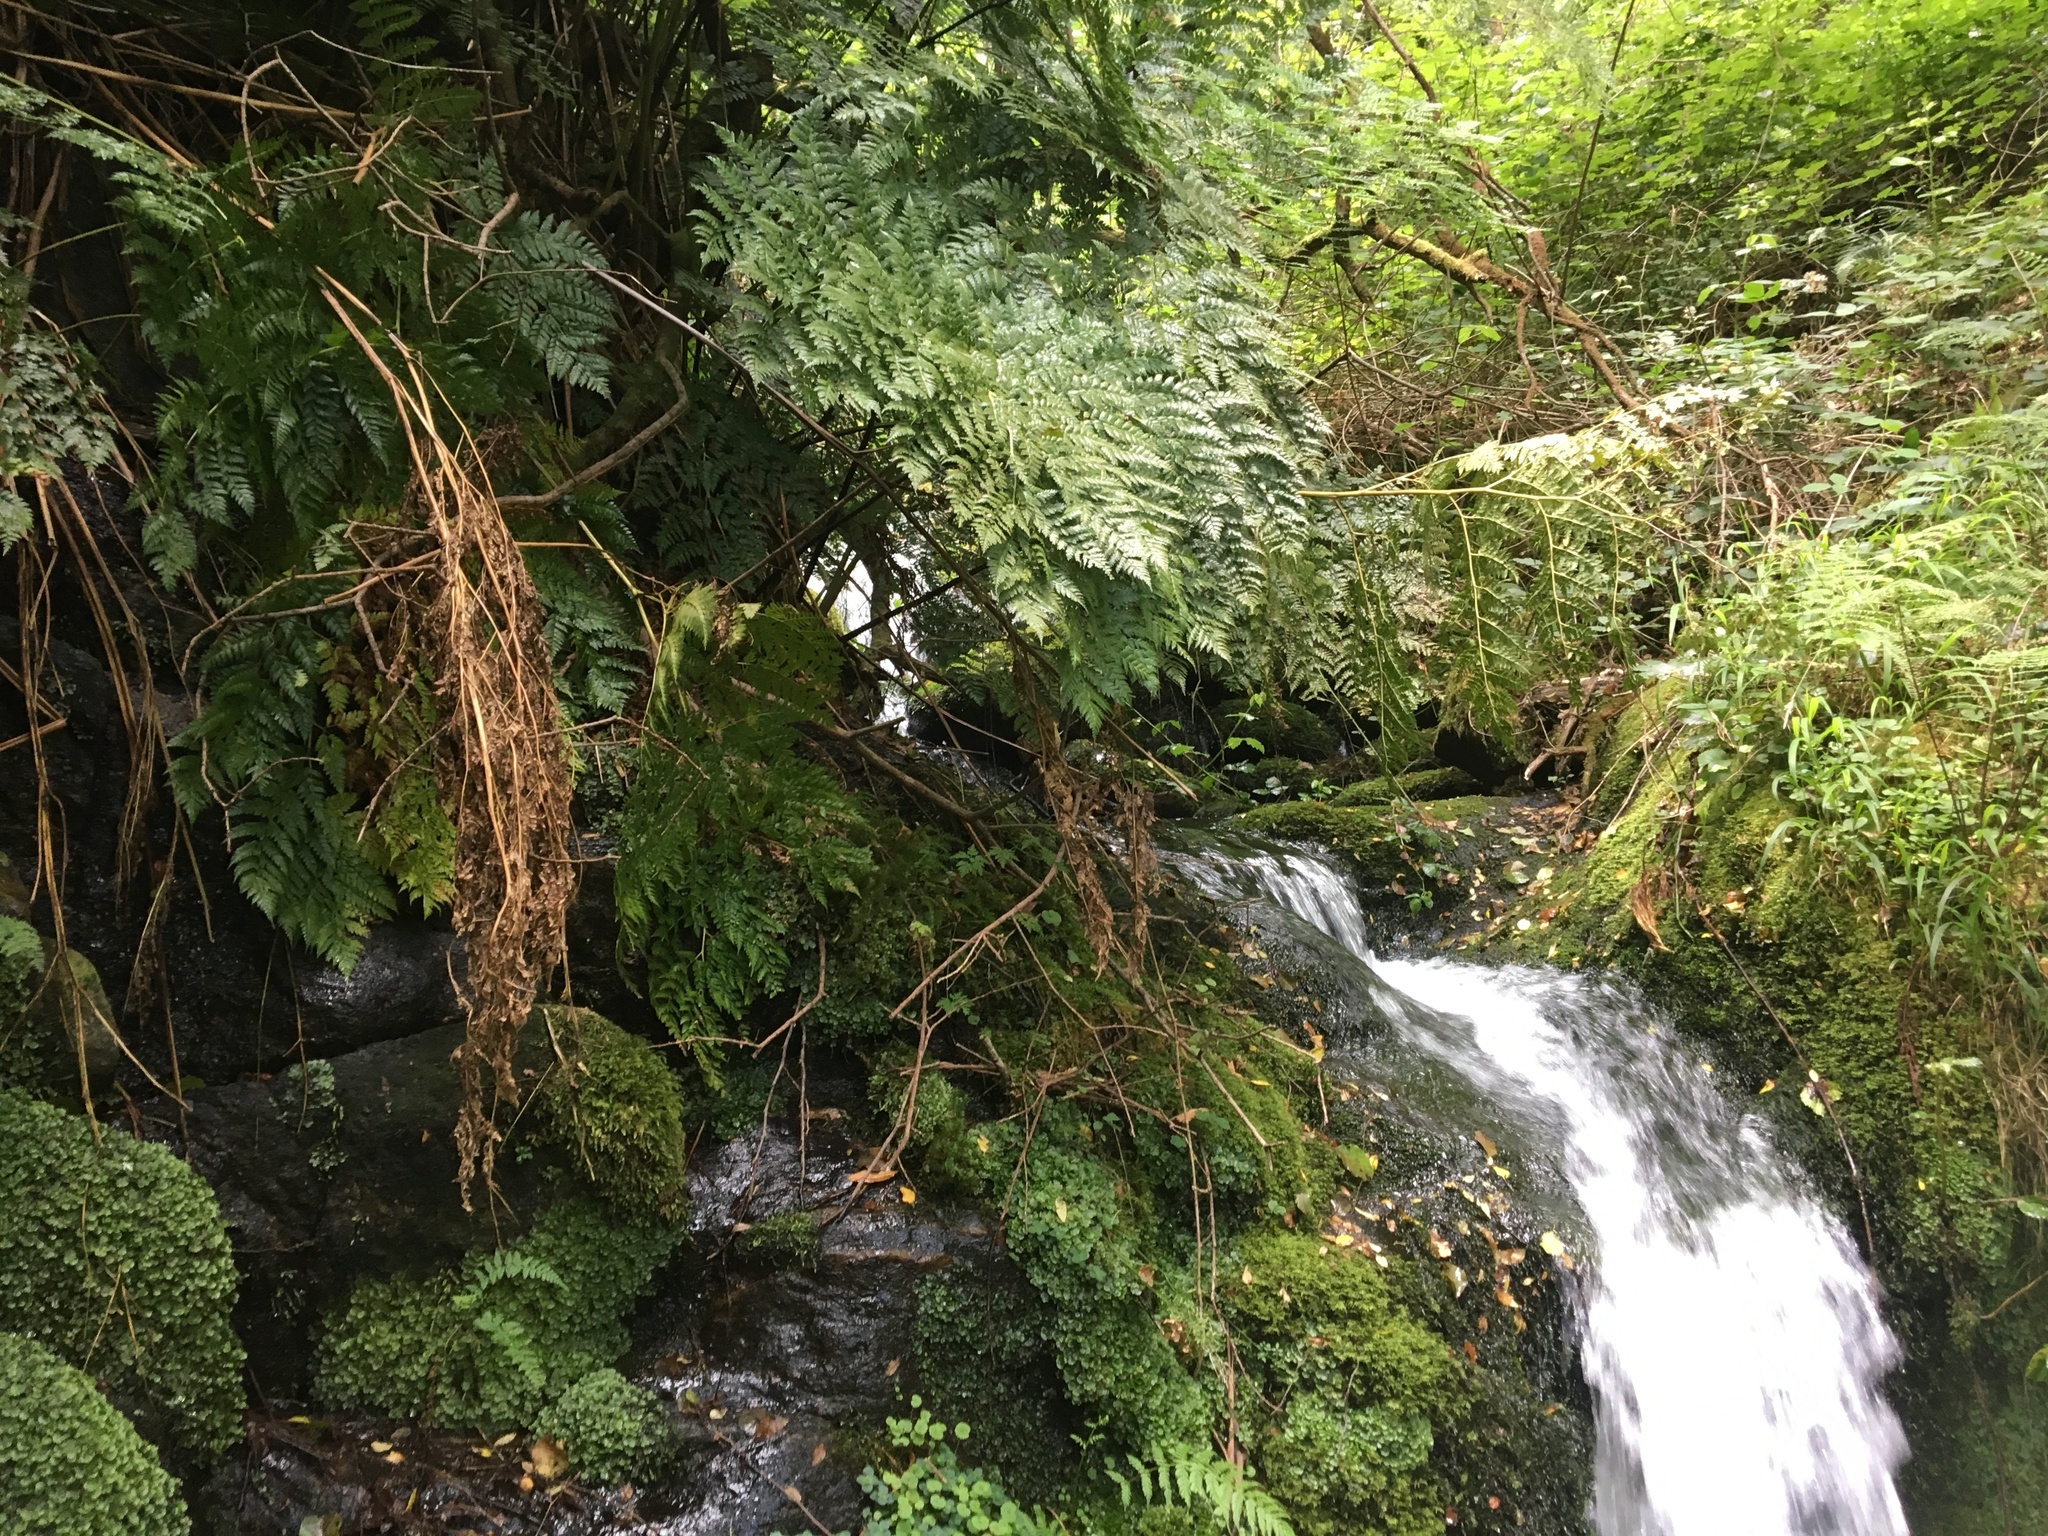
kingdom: Plantae
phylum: Tracheophyta
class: Polypodiopsida
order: Cyatheales
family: Culcitaceae
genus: Culcita
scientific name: Culcita macrocarpa
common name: Woolly tree fern
